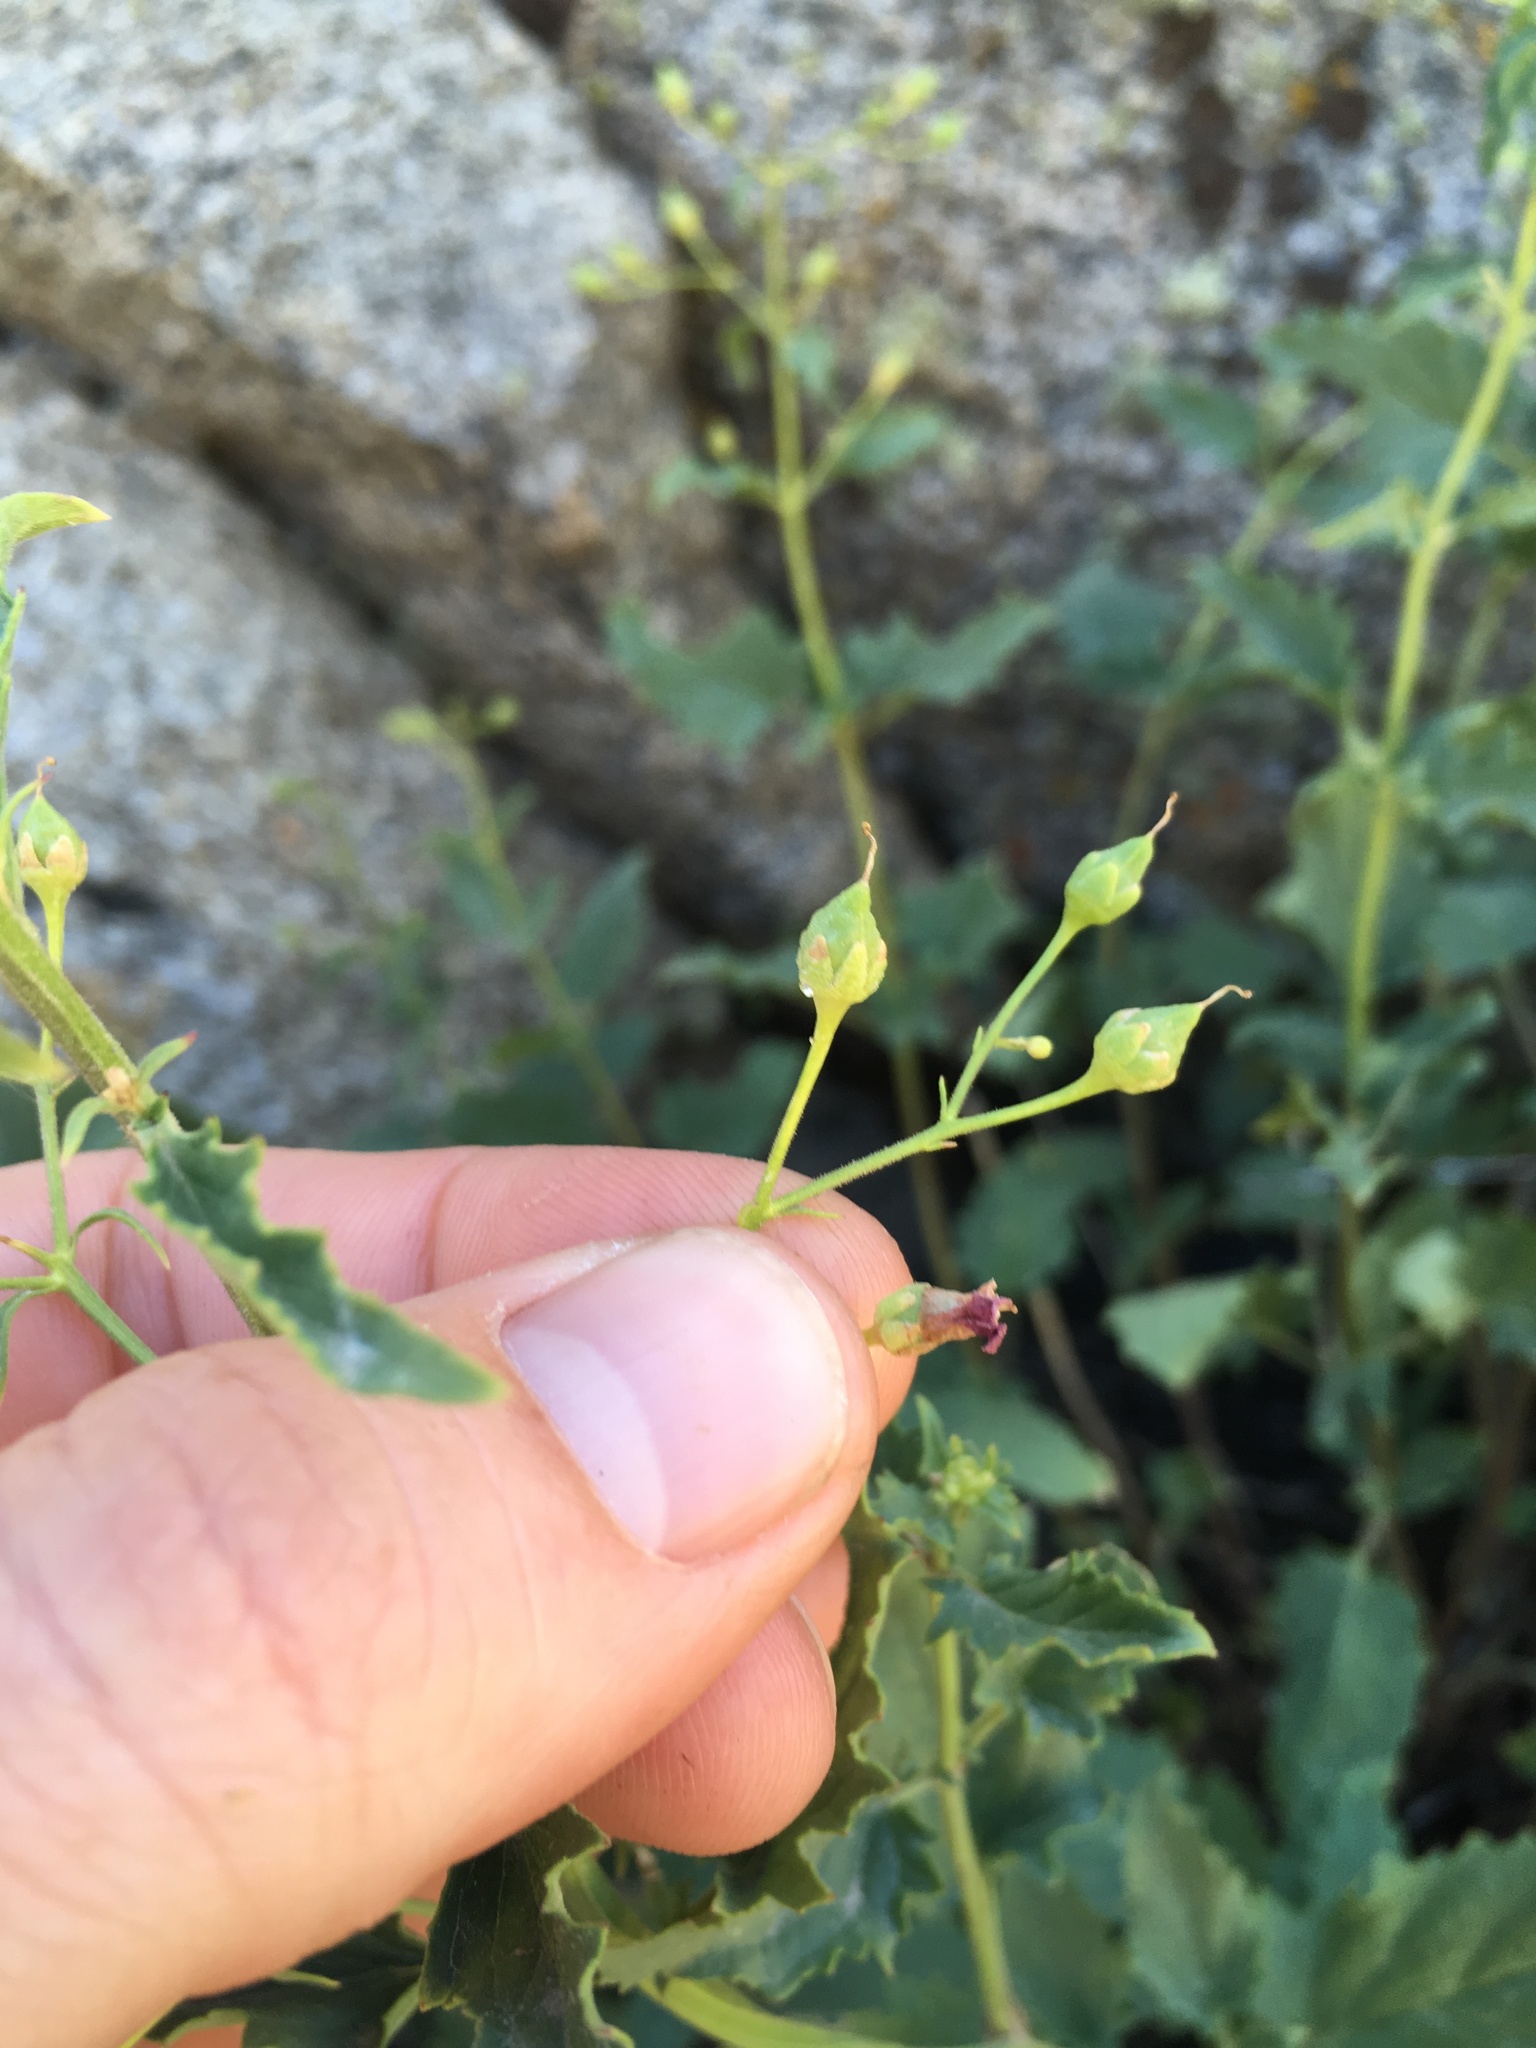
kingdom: Plantae
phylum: Tracheophyta
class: Magnoliopsida
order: Lamiales
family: Scrophulariaceae
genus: Scrophularia
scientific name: Scrophularia desertorum
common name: Desert figwort
